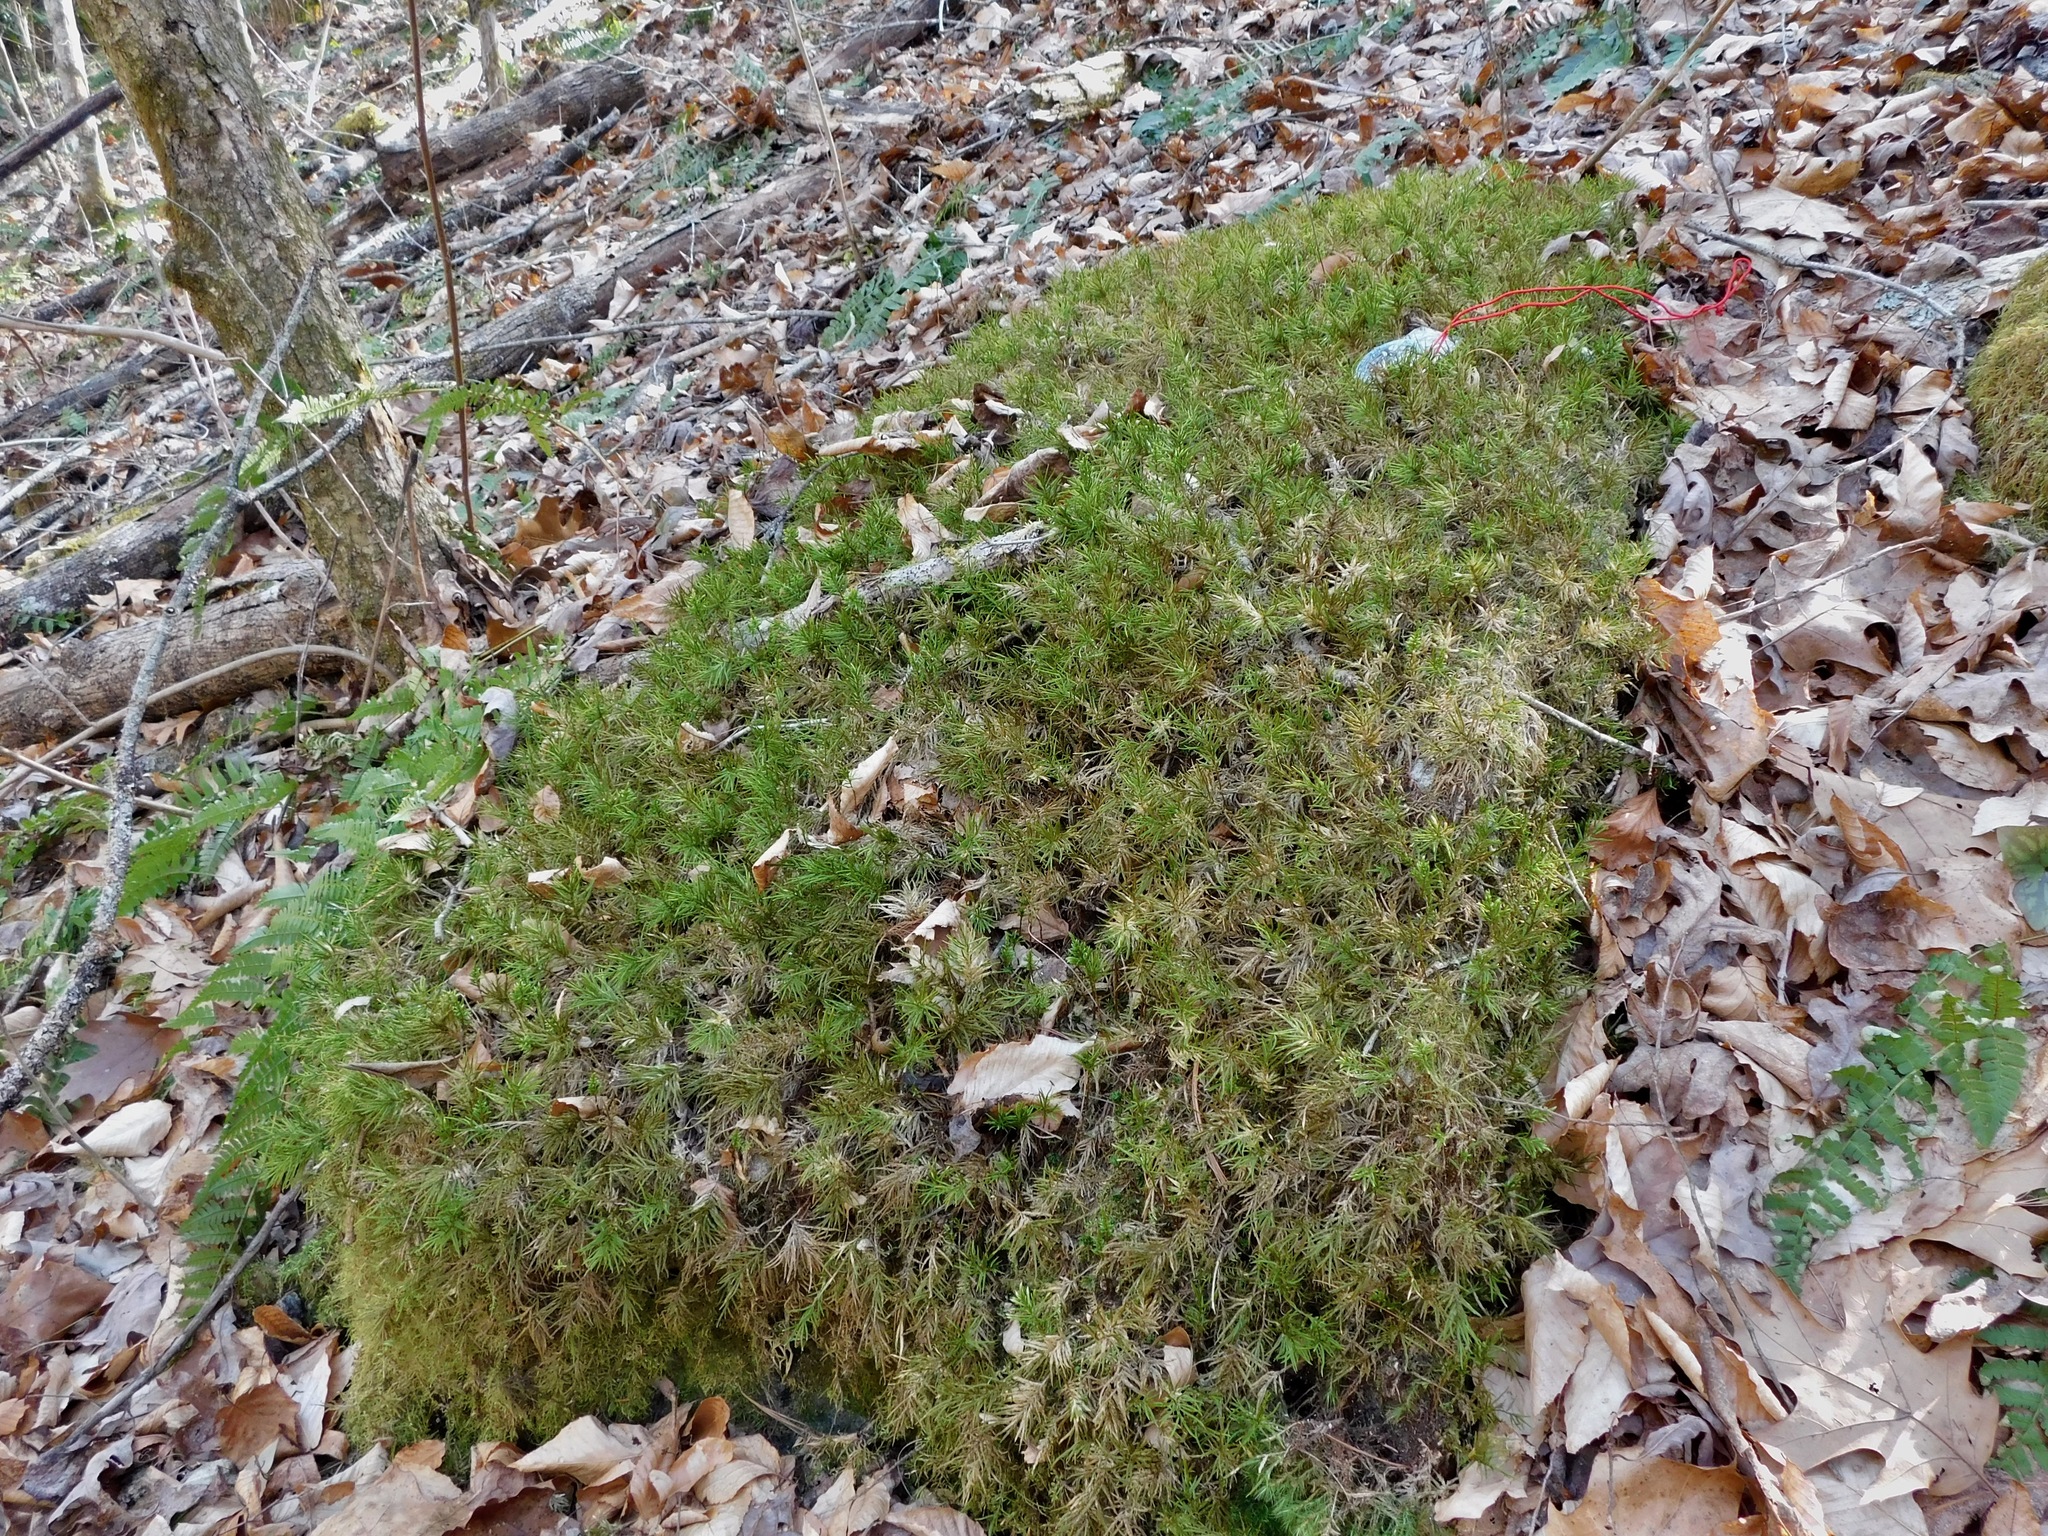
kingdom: Plantae
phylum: Bryophyta
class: Bryopsida
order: Hypnales
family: Climaciaceae
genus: Climacium
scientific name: Climacium americanum
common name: American tree moss
